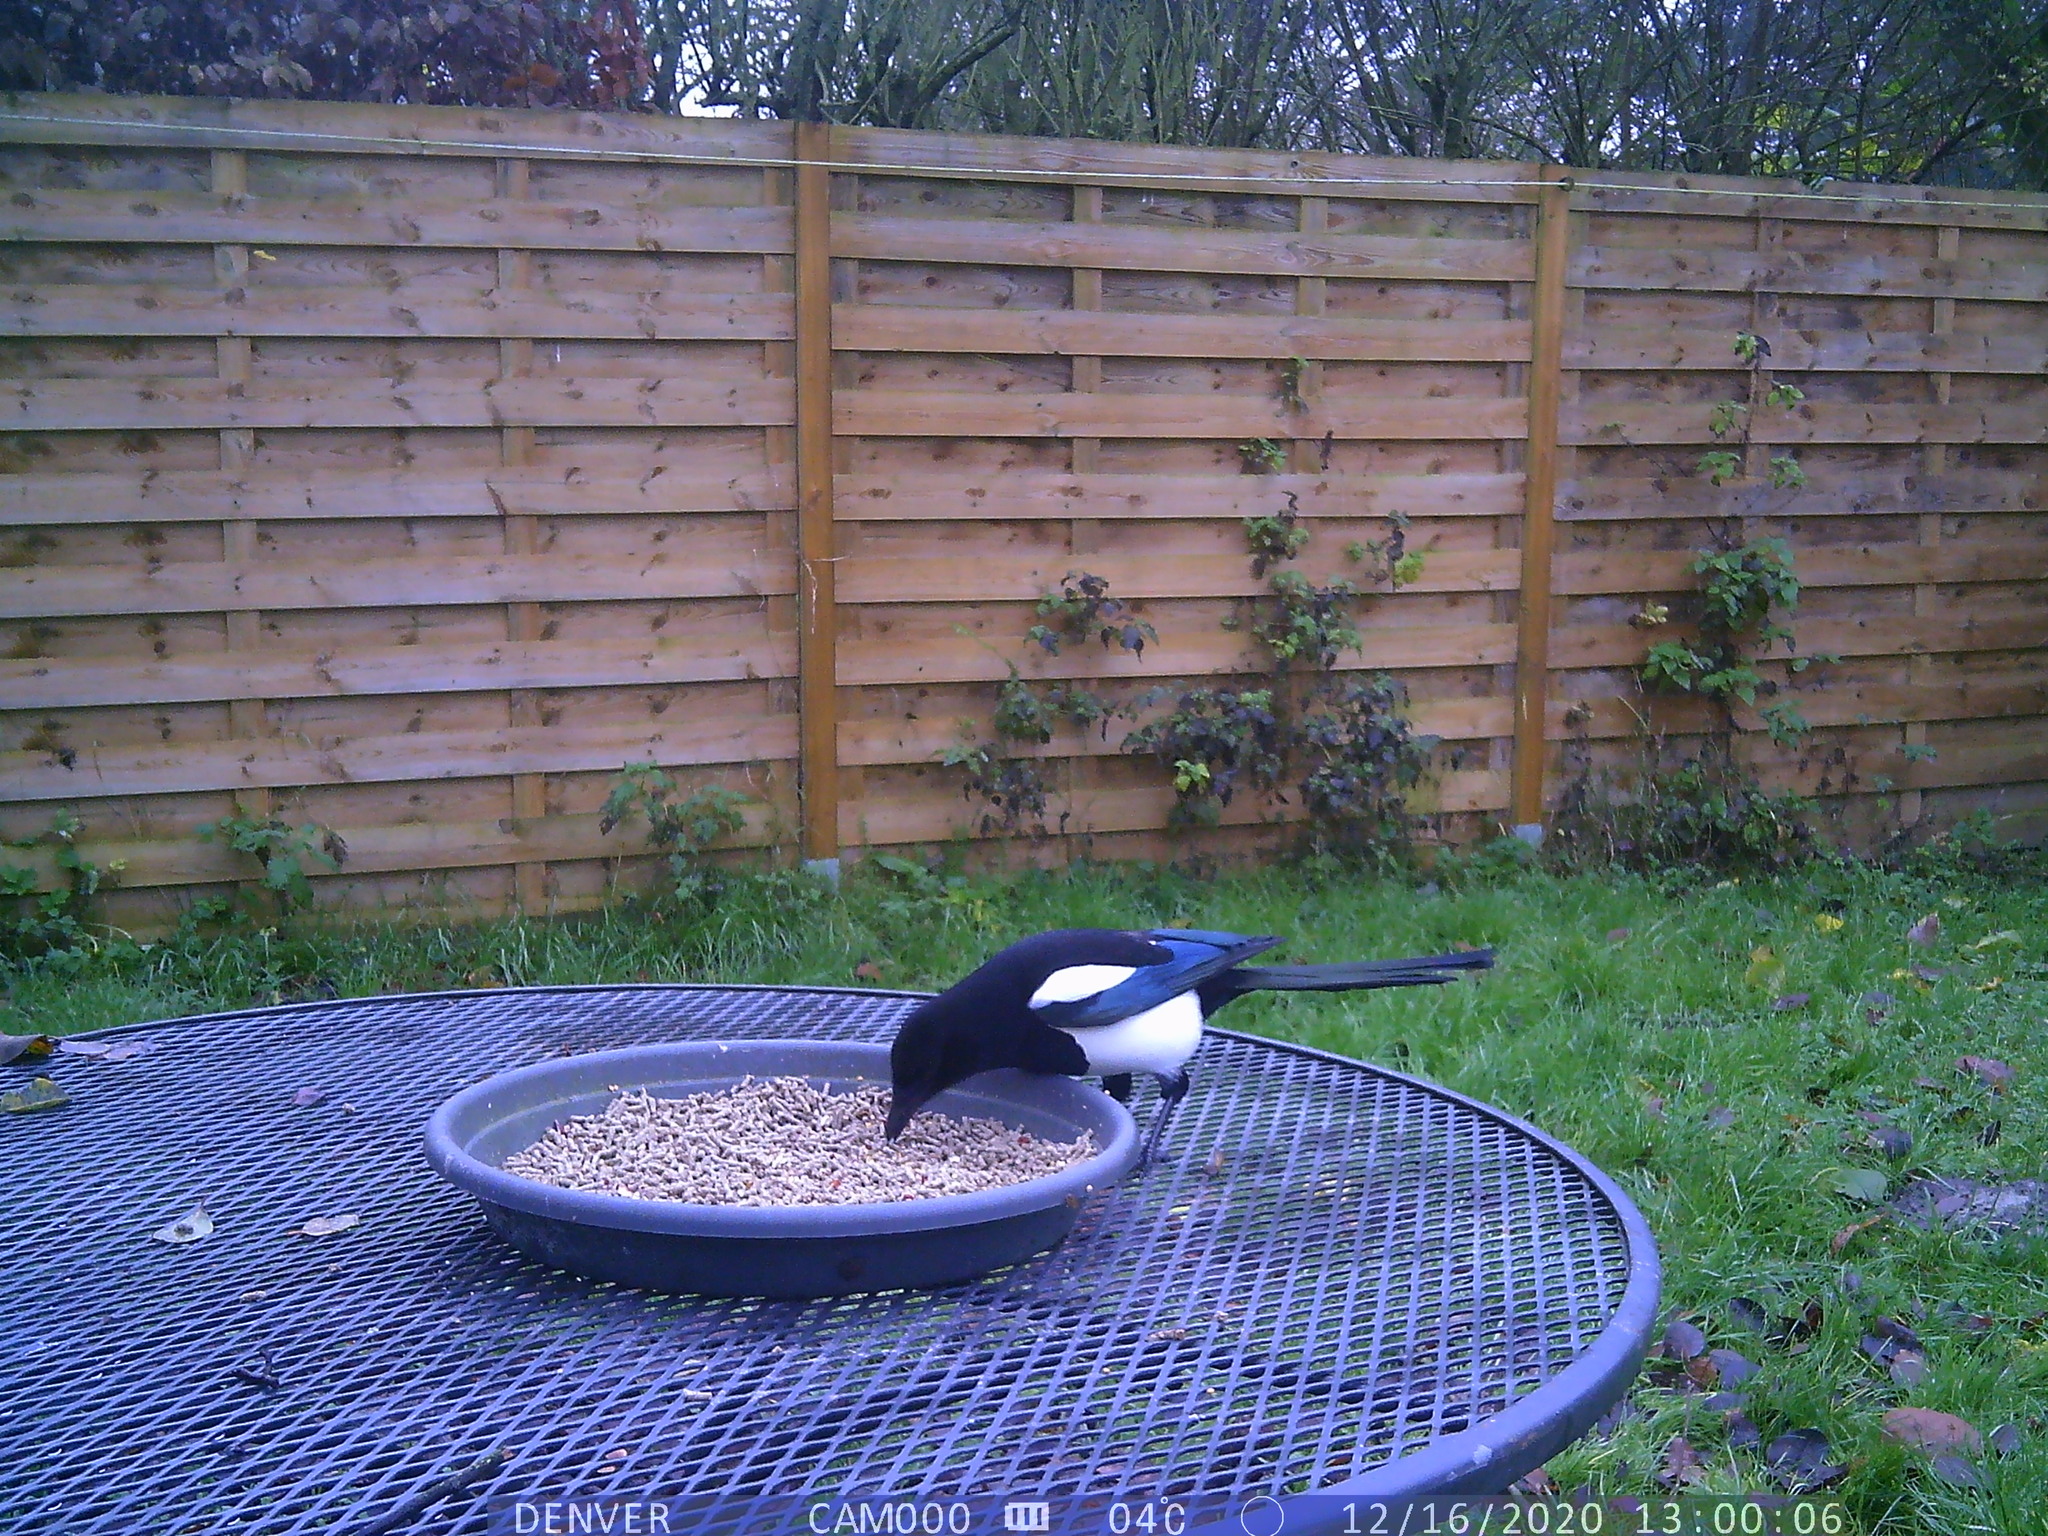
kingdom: Animalia
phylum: Chordata
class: Aves
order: Passeriformes
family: Corvidae
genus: Pica
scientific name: Pica pica
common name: Eurasian magpie
